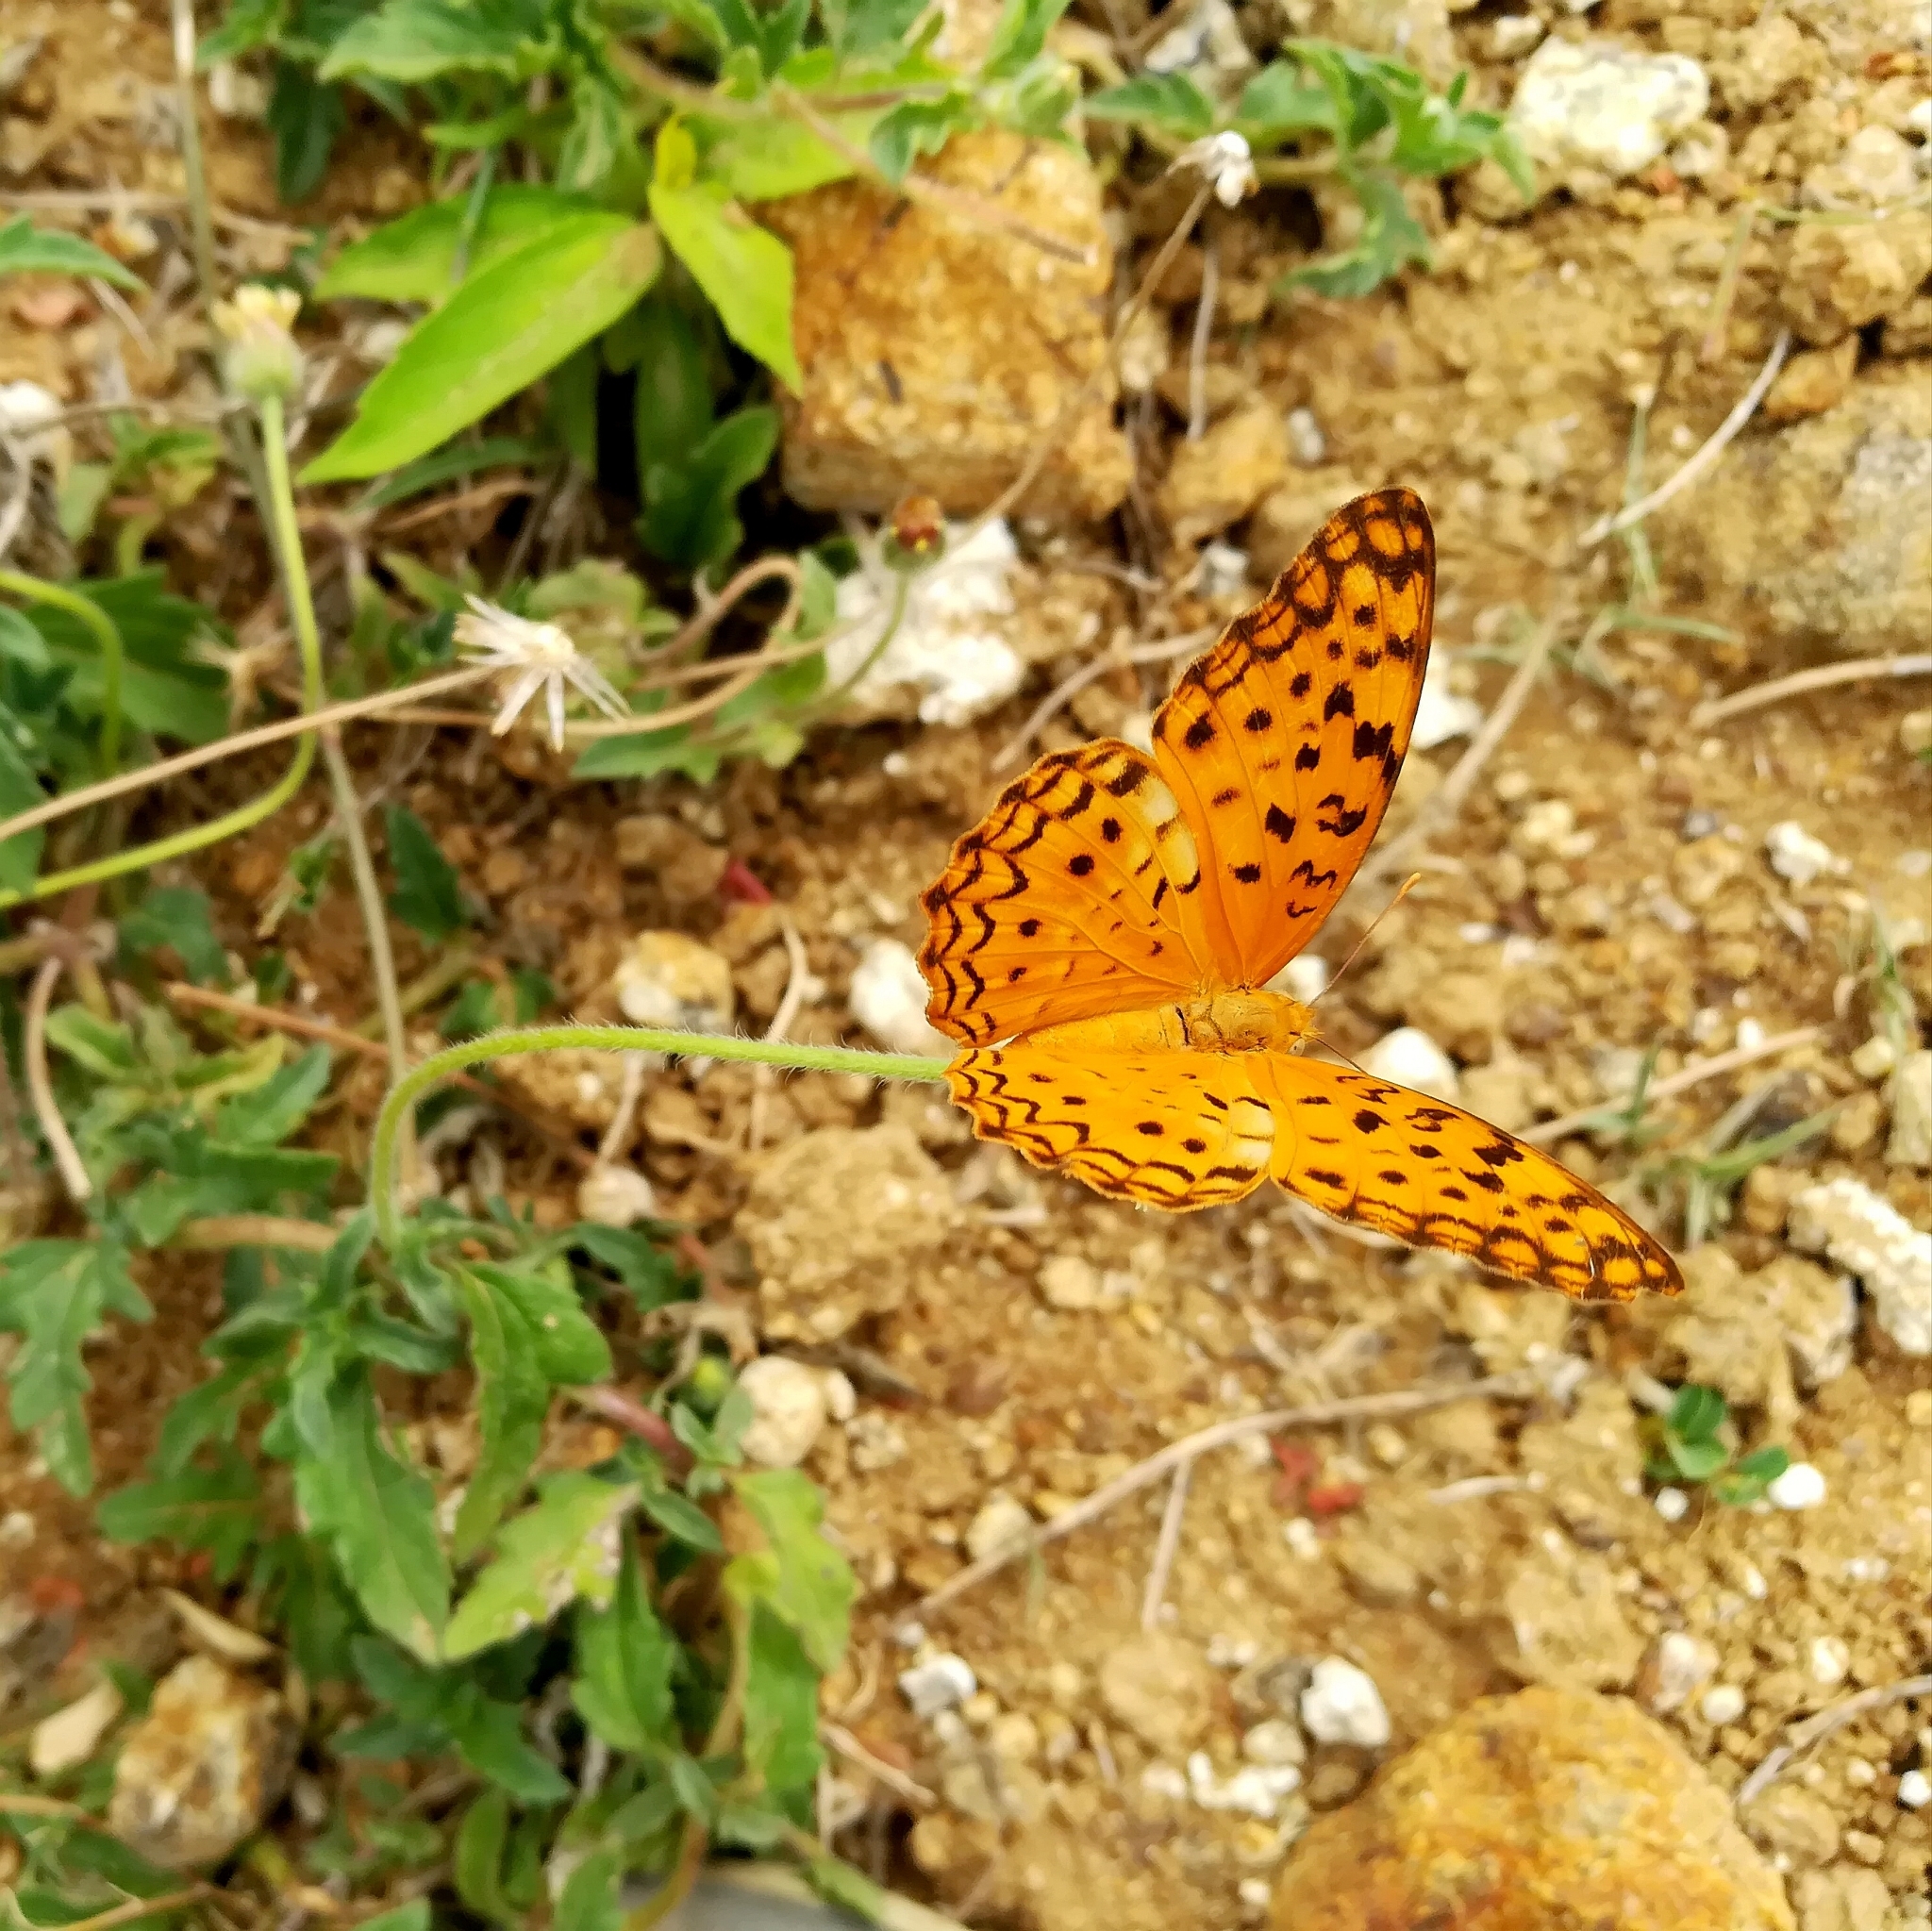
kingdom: Animalia
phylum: Arthropoda
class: Insecta
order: Lepidoptera
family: Nymphalidae
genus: Phalanta
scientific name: Phalanta phalantha
